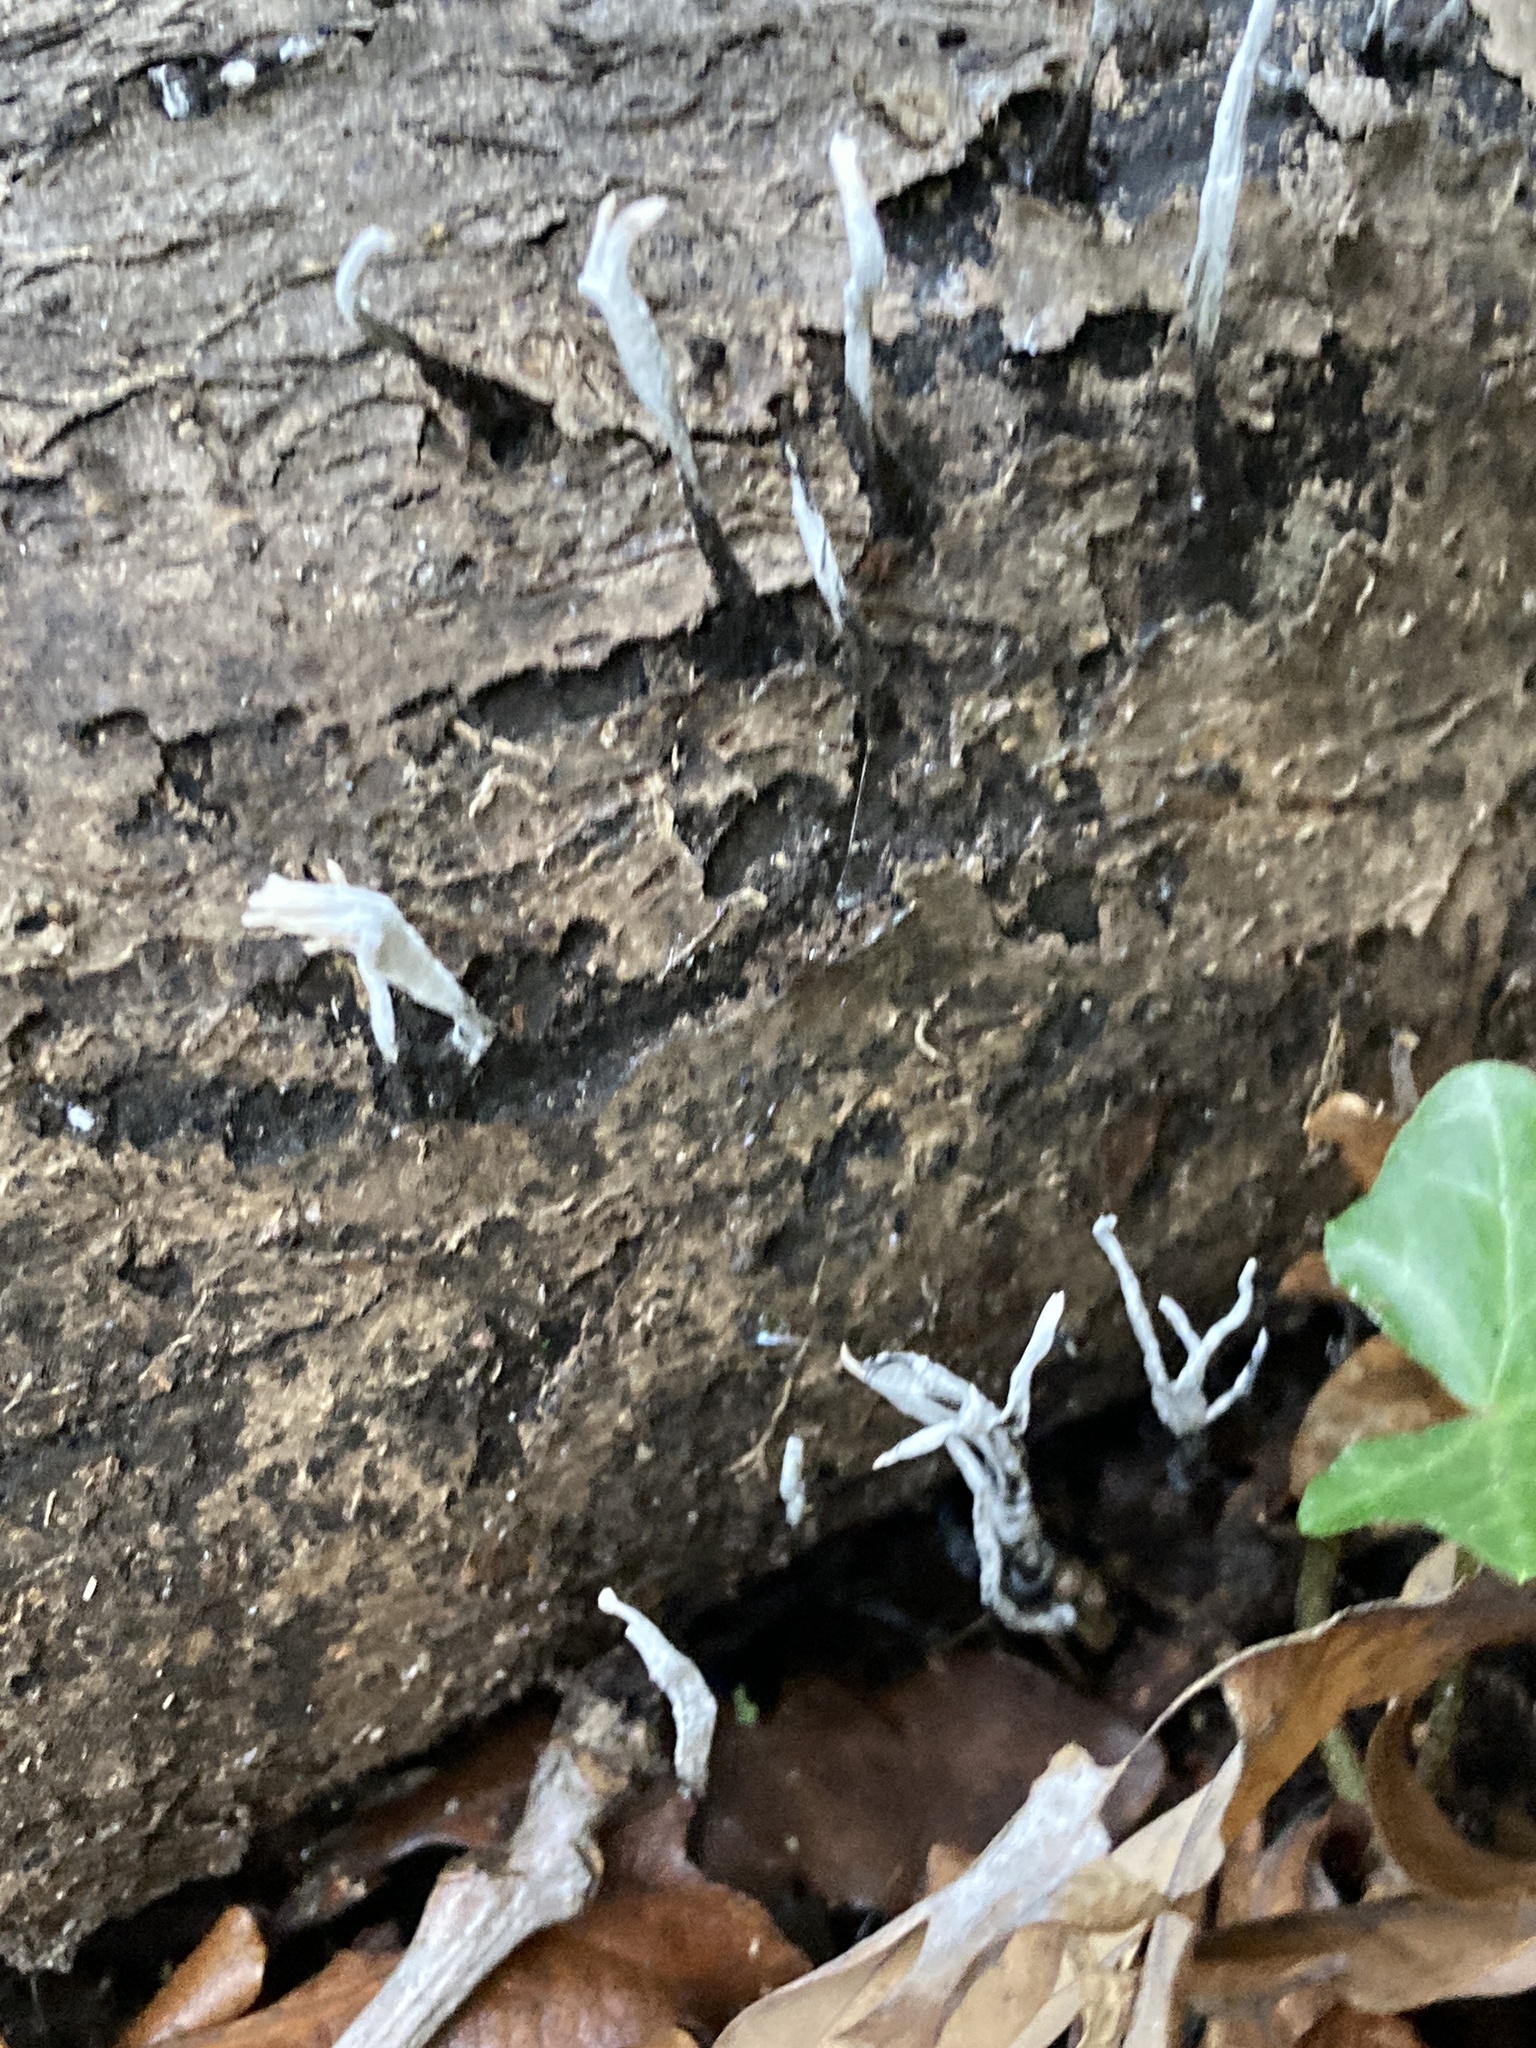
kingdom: Fungi
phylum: Ascomycota
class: Sordariomycetes
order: Xylariales
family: Xylariaceae
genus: Xylaria
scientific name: Xylaria hypoxylon
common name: Candle-snuff fungus
